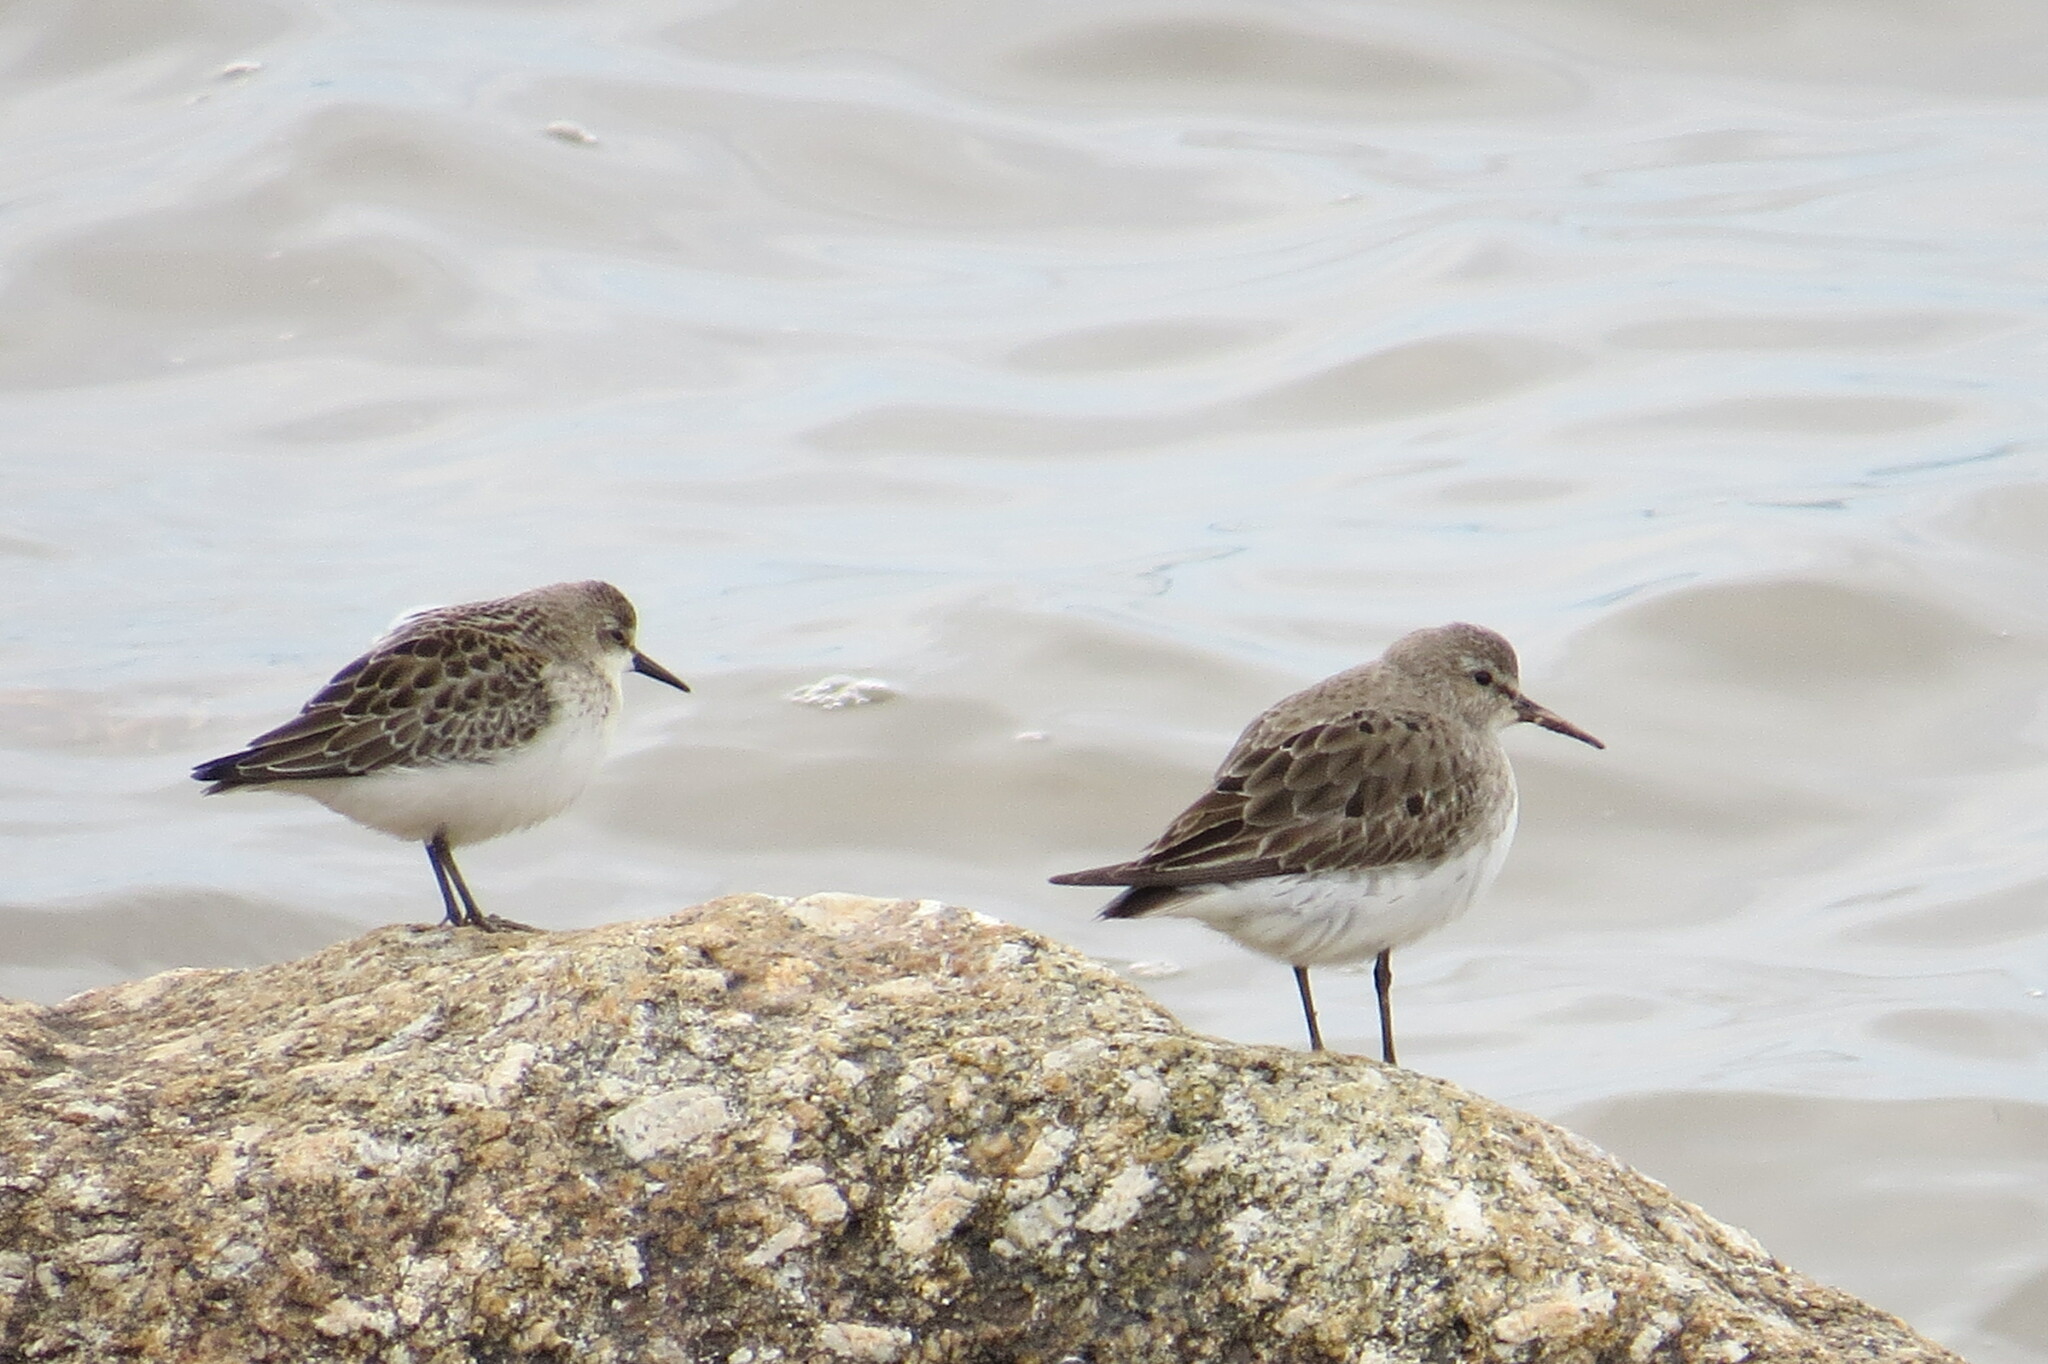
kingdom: Animalia
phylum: Chordata
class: Aves
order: Charadriiformes
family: Scolopacidae
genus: Calidris
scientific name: Calidris fuscicollis
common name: White-rumped sandpiper
